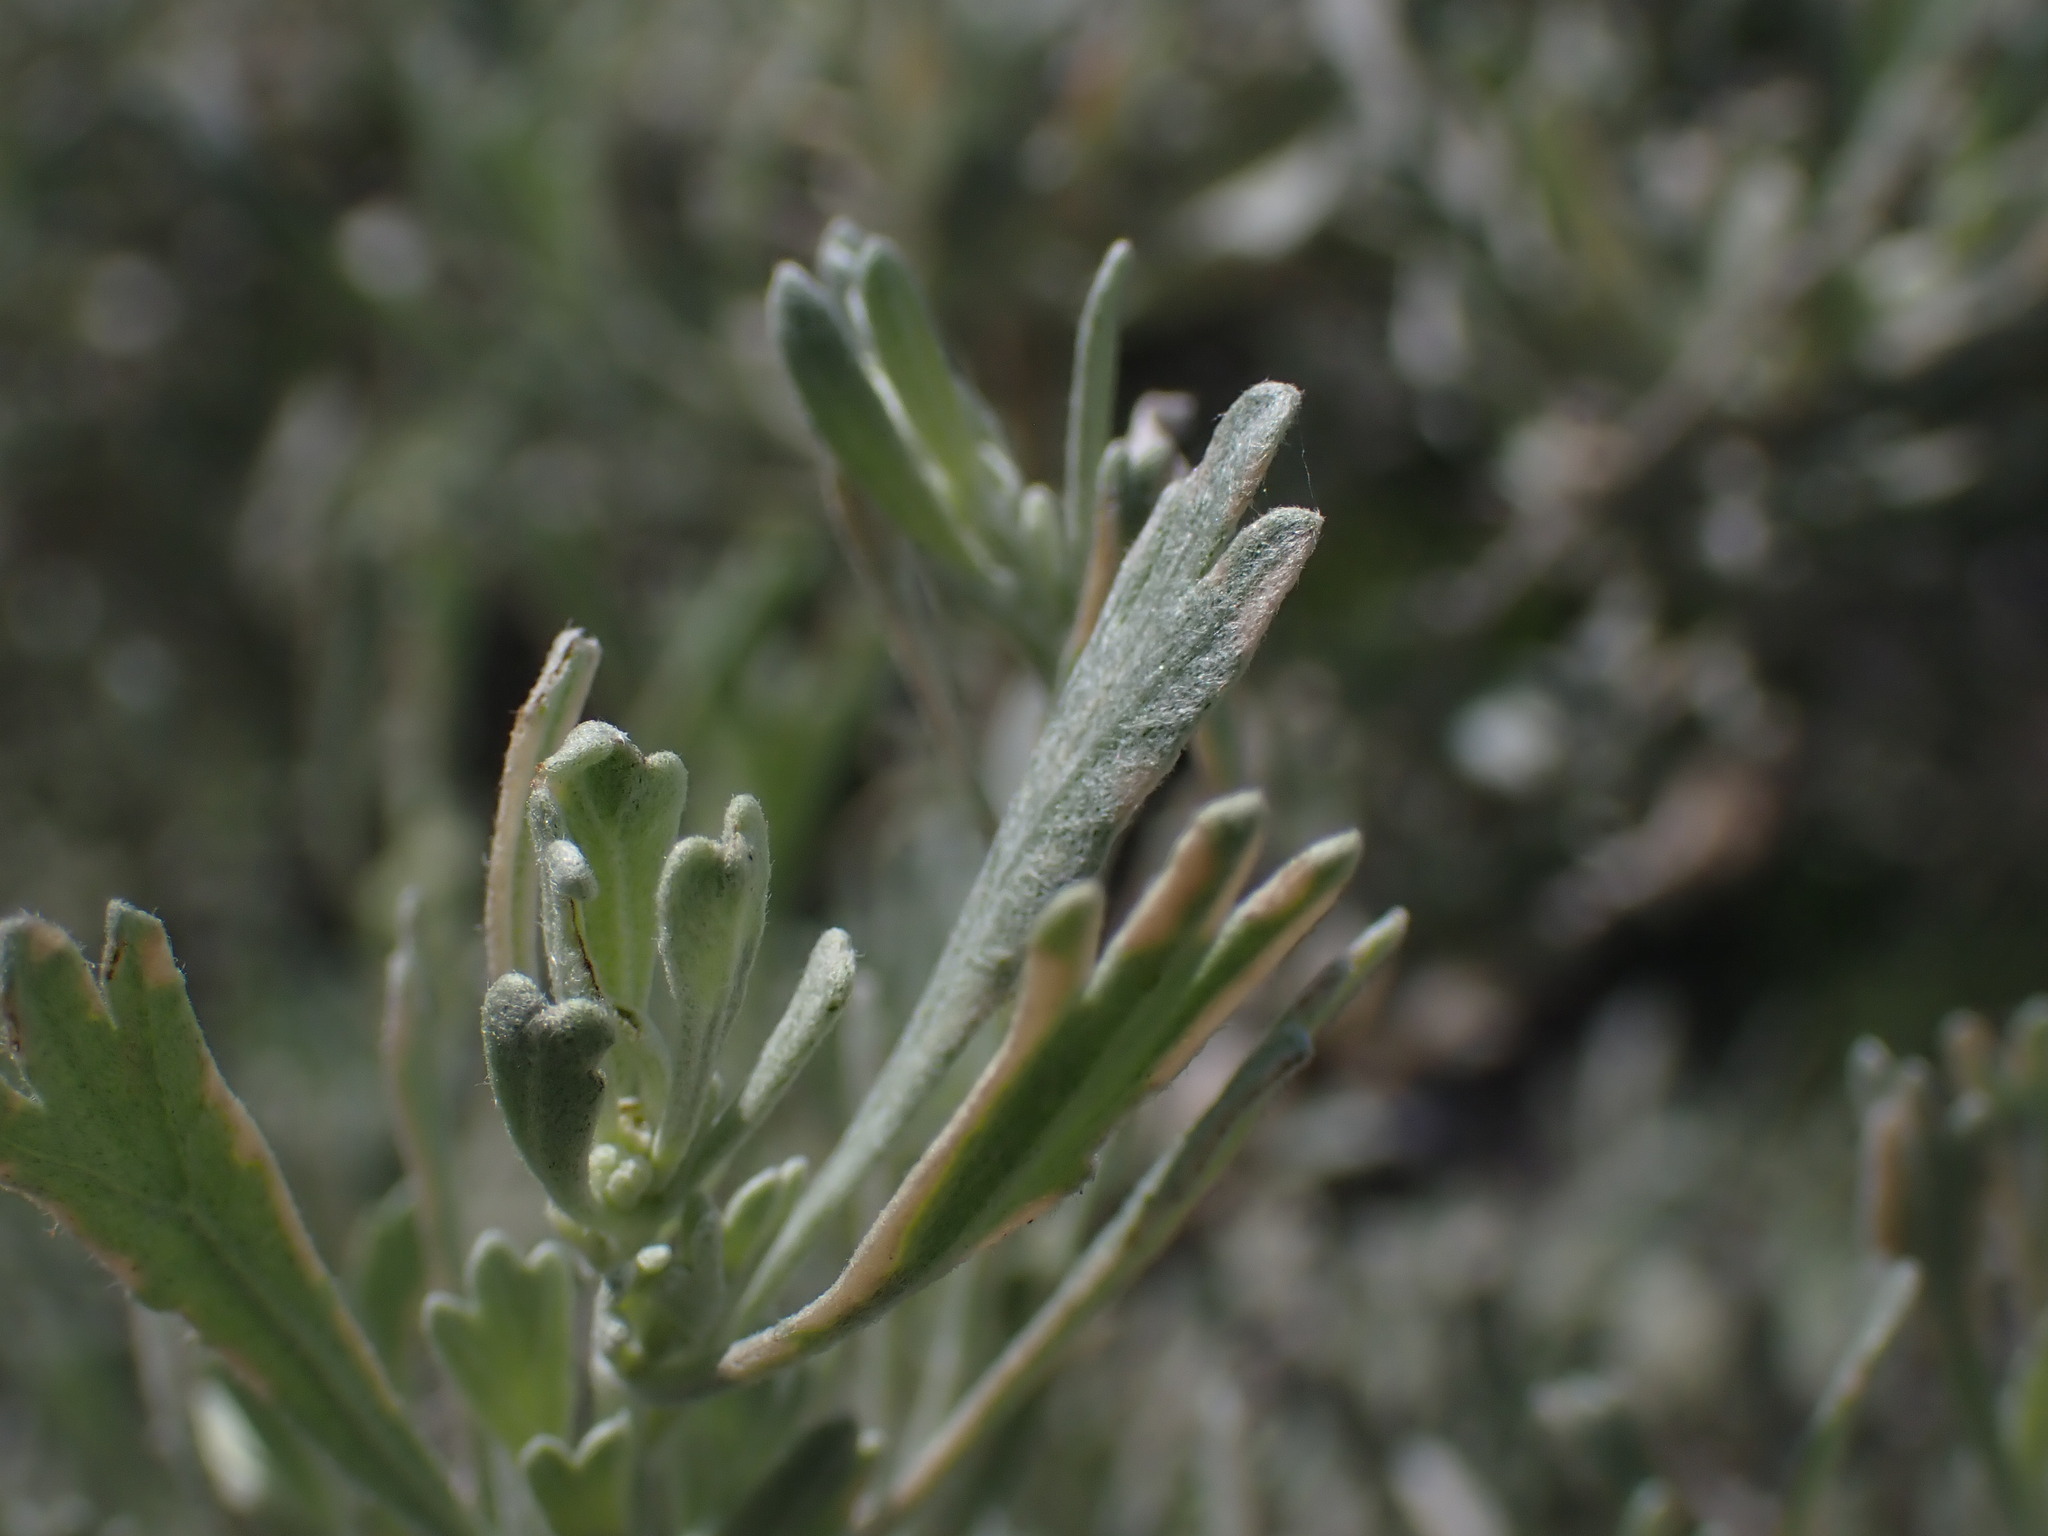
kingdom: Plantae
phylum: Tracheophyta
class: Magnoliopsida
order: Asterales
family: Asteraceae
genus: Artemisia
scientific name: Artemisia tridentata
